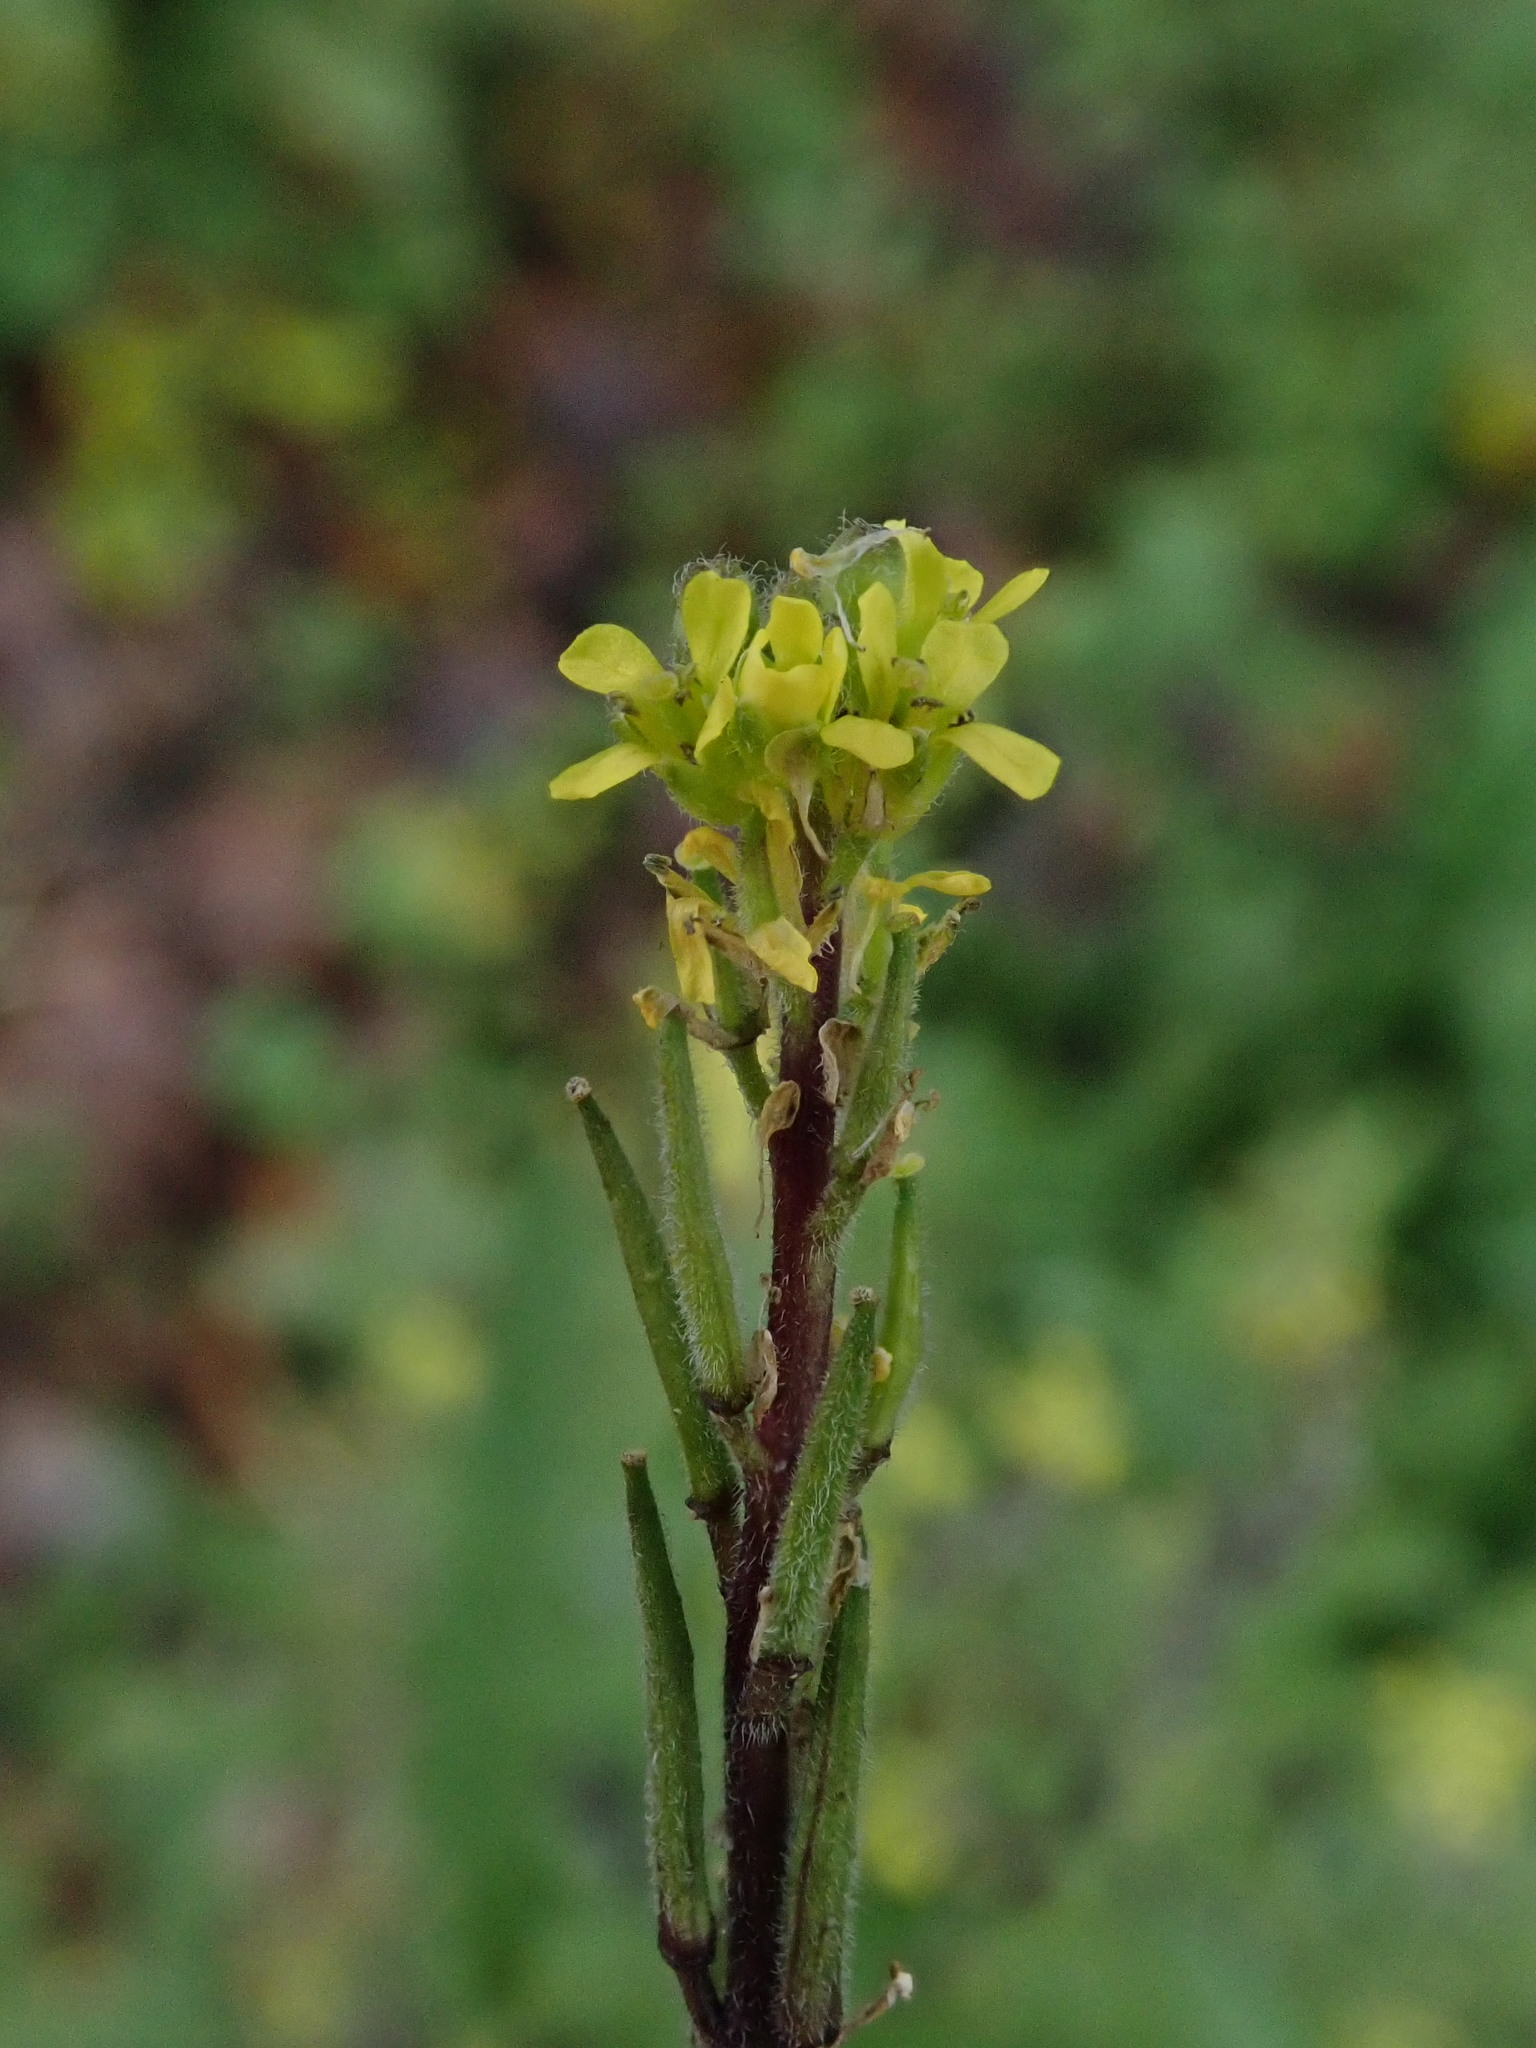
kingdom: Plantae
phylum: Tracheophyta
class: Magnoliopsida
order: Brassicales
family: Brassicaceae
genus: Sisymbrium
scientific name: Sisymbrium officinale
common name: Hedge mustard
